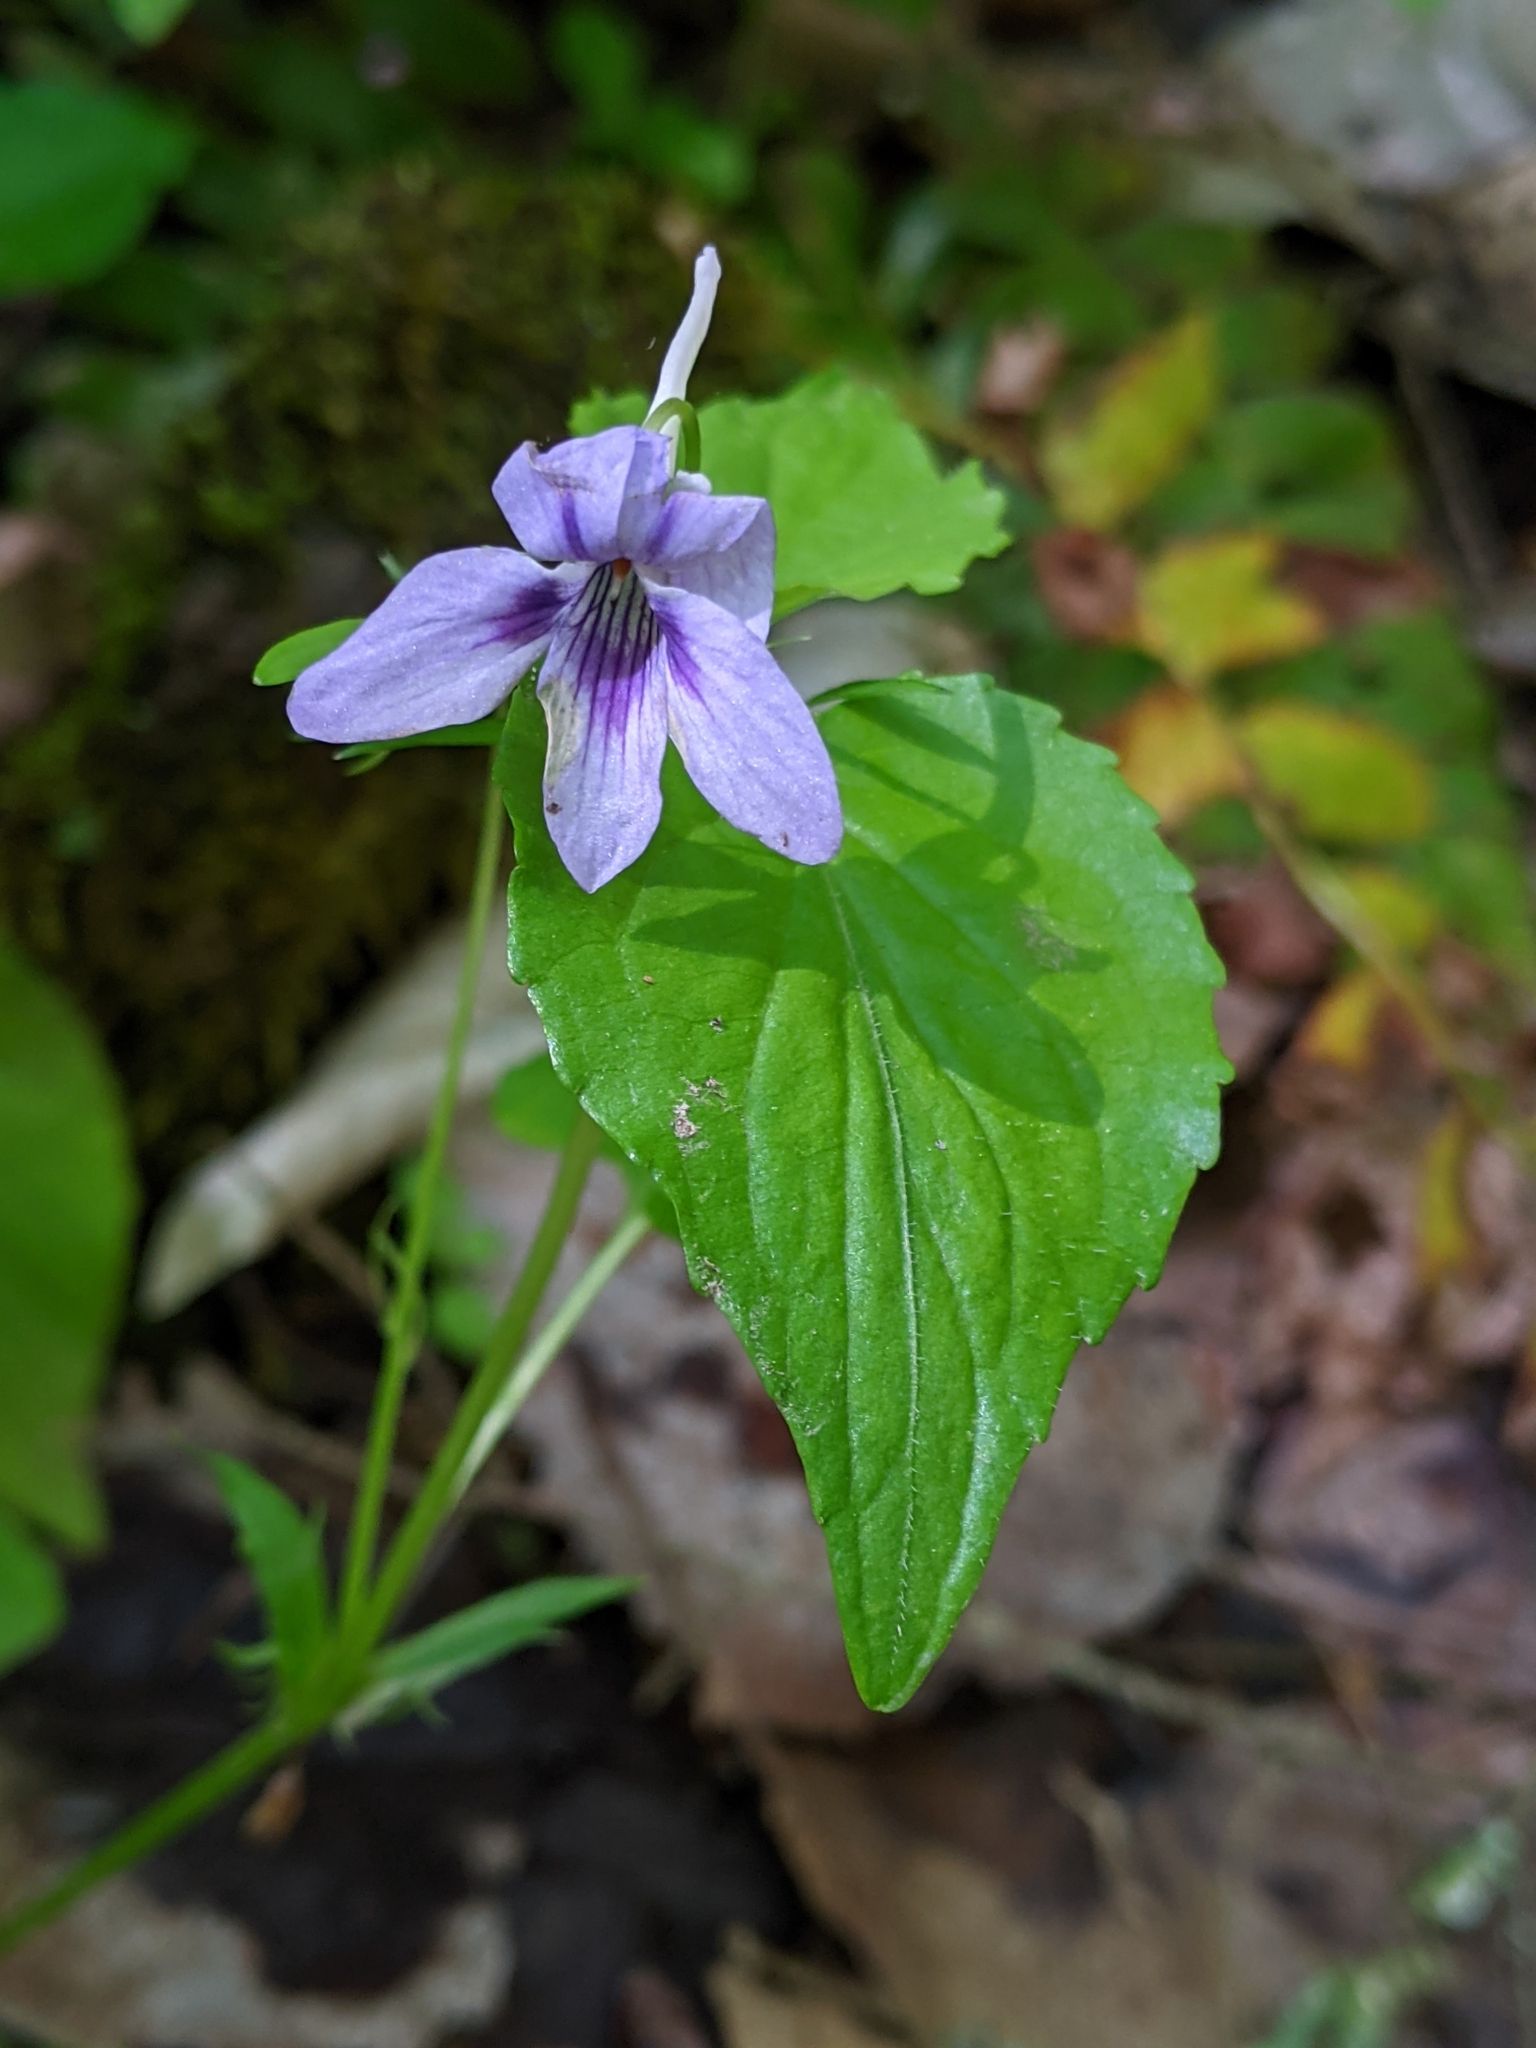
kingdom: Plantae
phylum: Tracheophyta
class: Magnoliopsida
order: Malpighiales
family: Violaceae
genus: Viola
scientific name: Viola rostrata
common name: Long-spur violet
